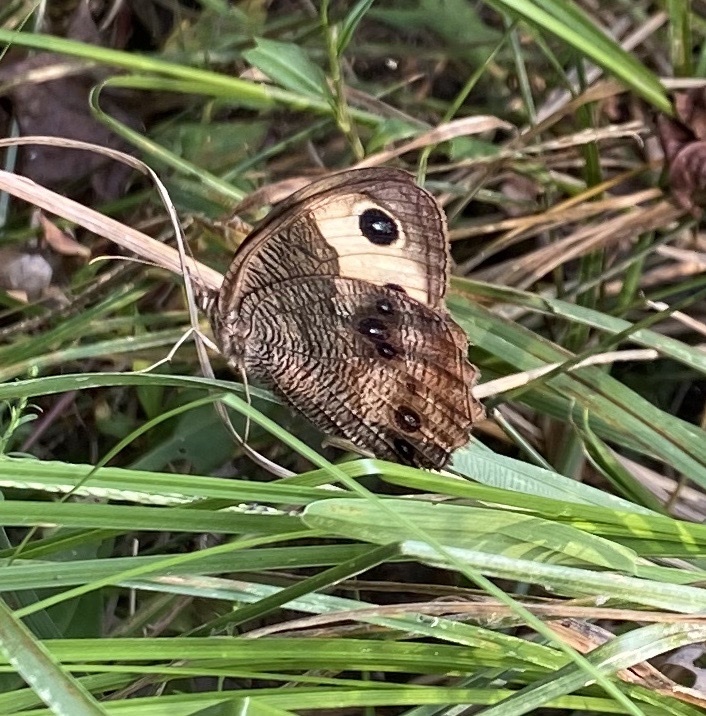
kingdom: Animalia
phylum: Arthropoda
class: Insecta
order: Lepidoptera
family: Nymphalidae
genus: Cercyonis
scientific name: Cercyonis pegala
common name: Common wood-nymph
